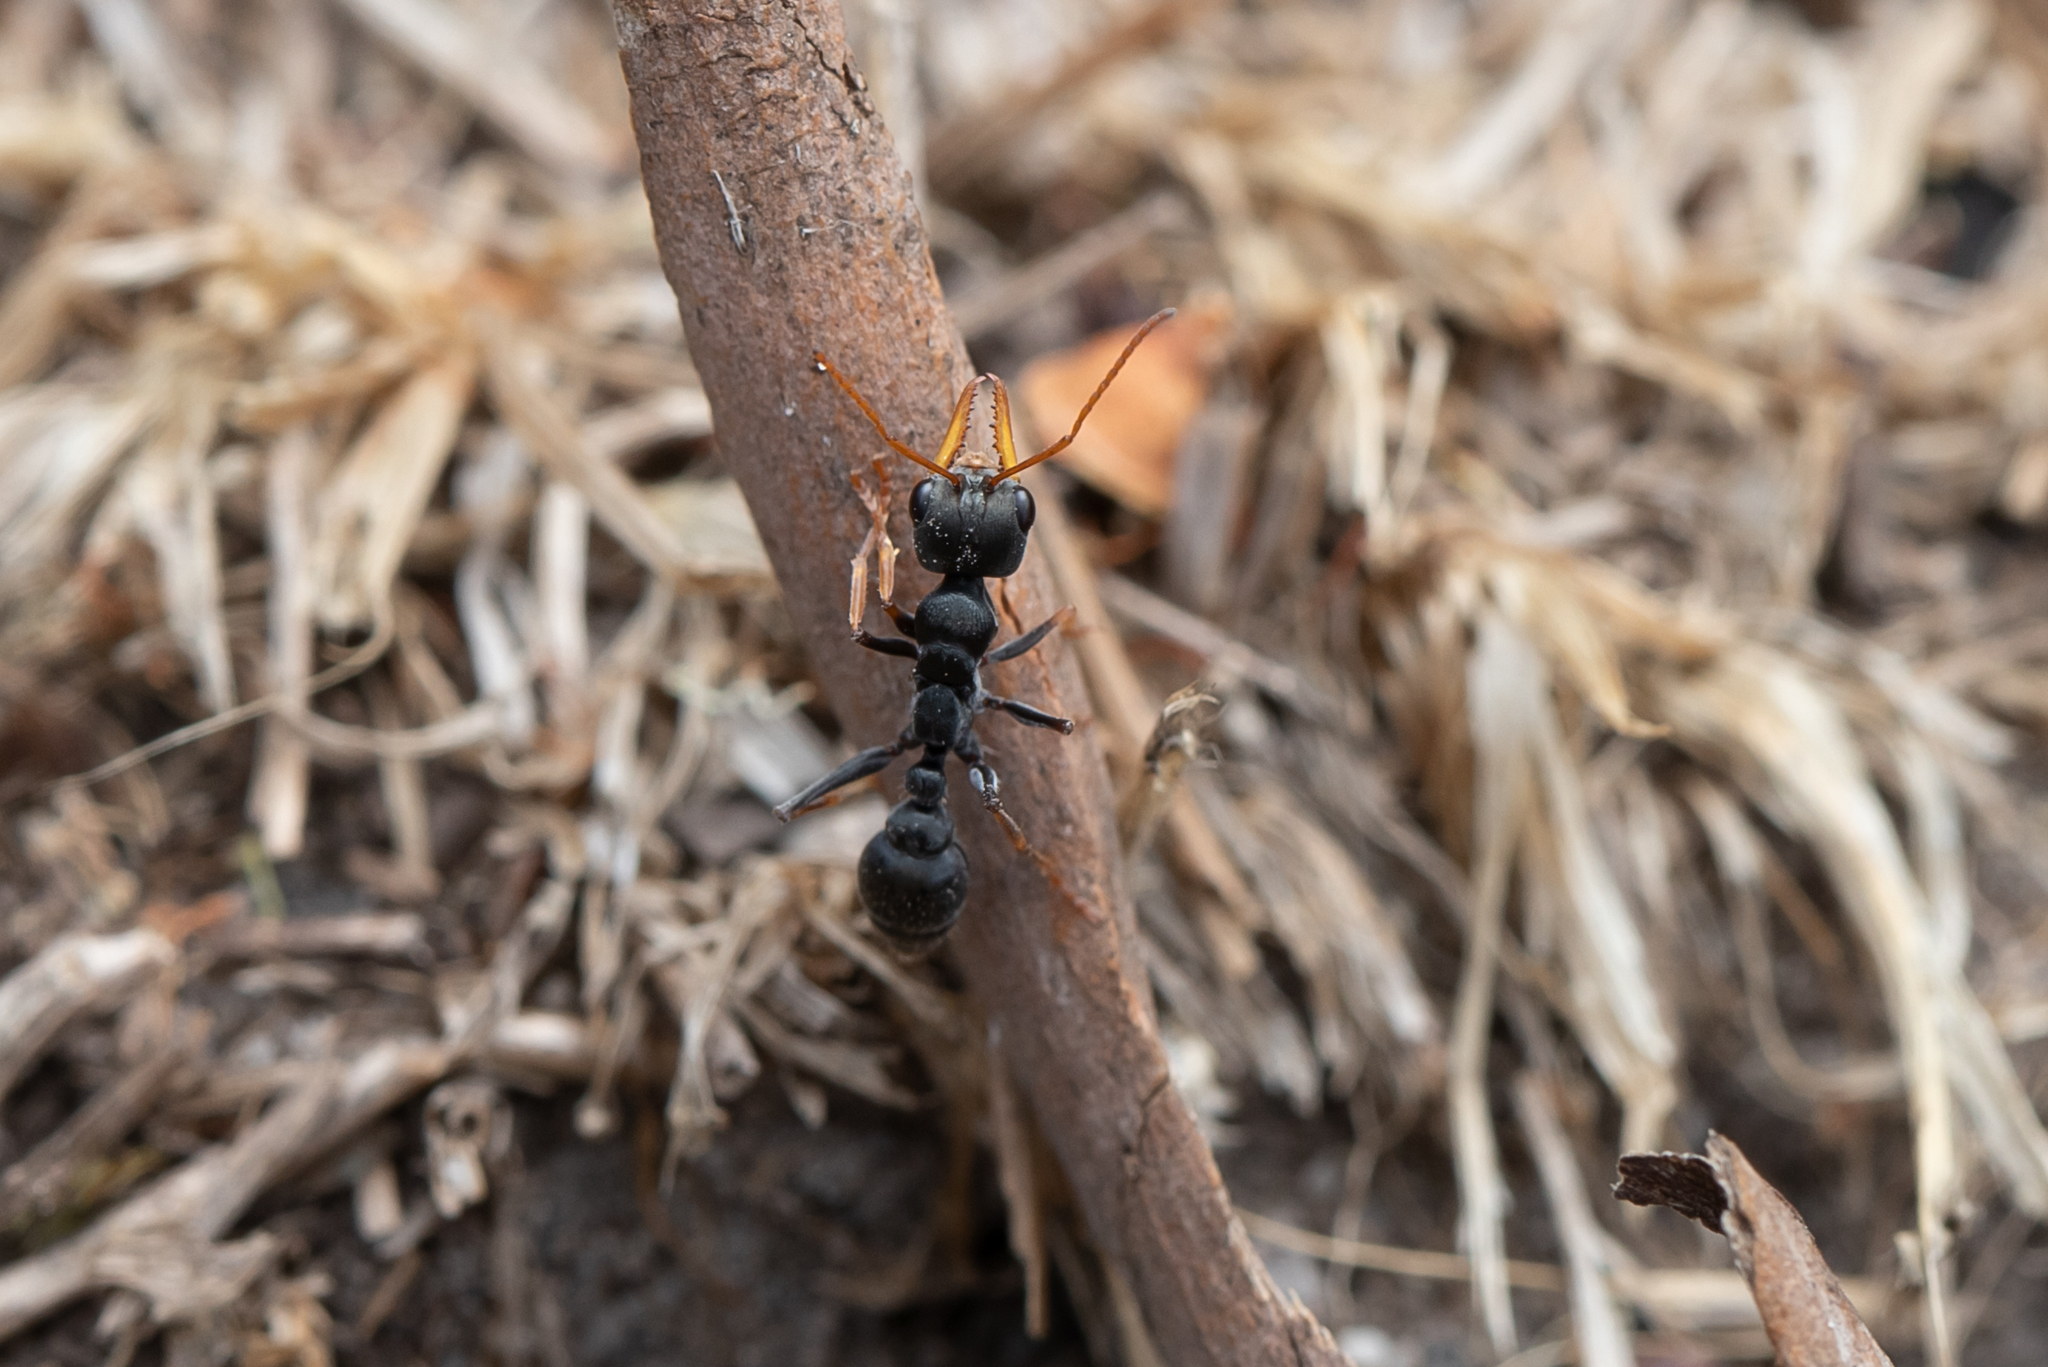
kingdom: Animalia
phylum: Arthropoda
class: Insecta
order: Hymenoptera
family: Formicidae
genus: Myrmecia
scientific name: Myrmecia pilosula
